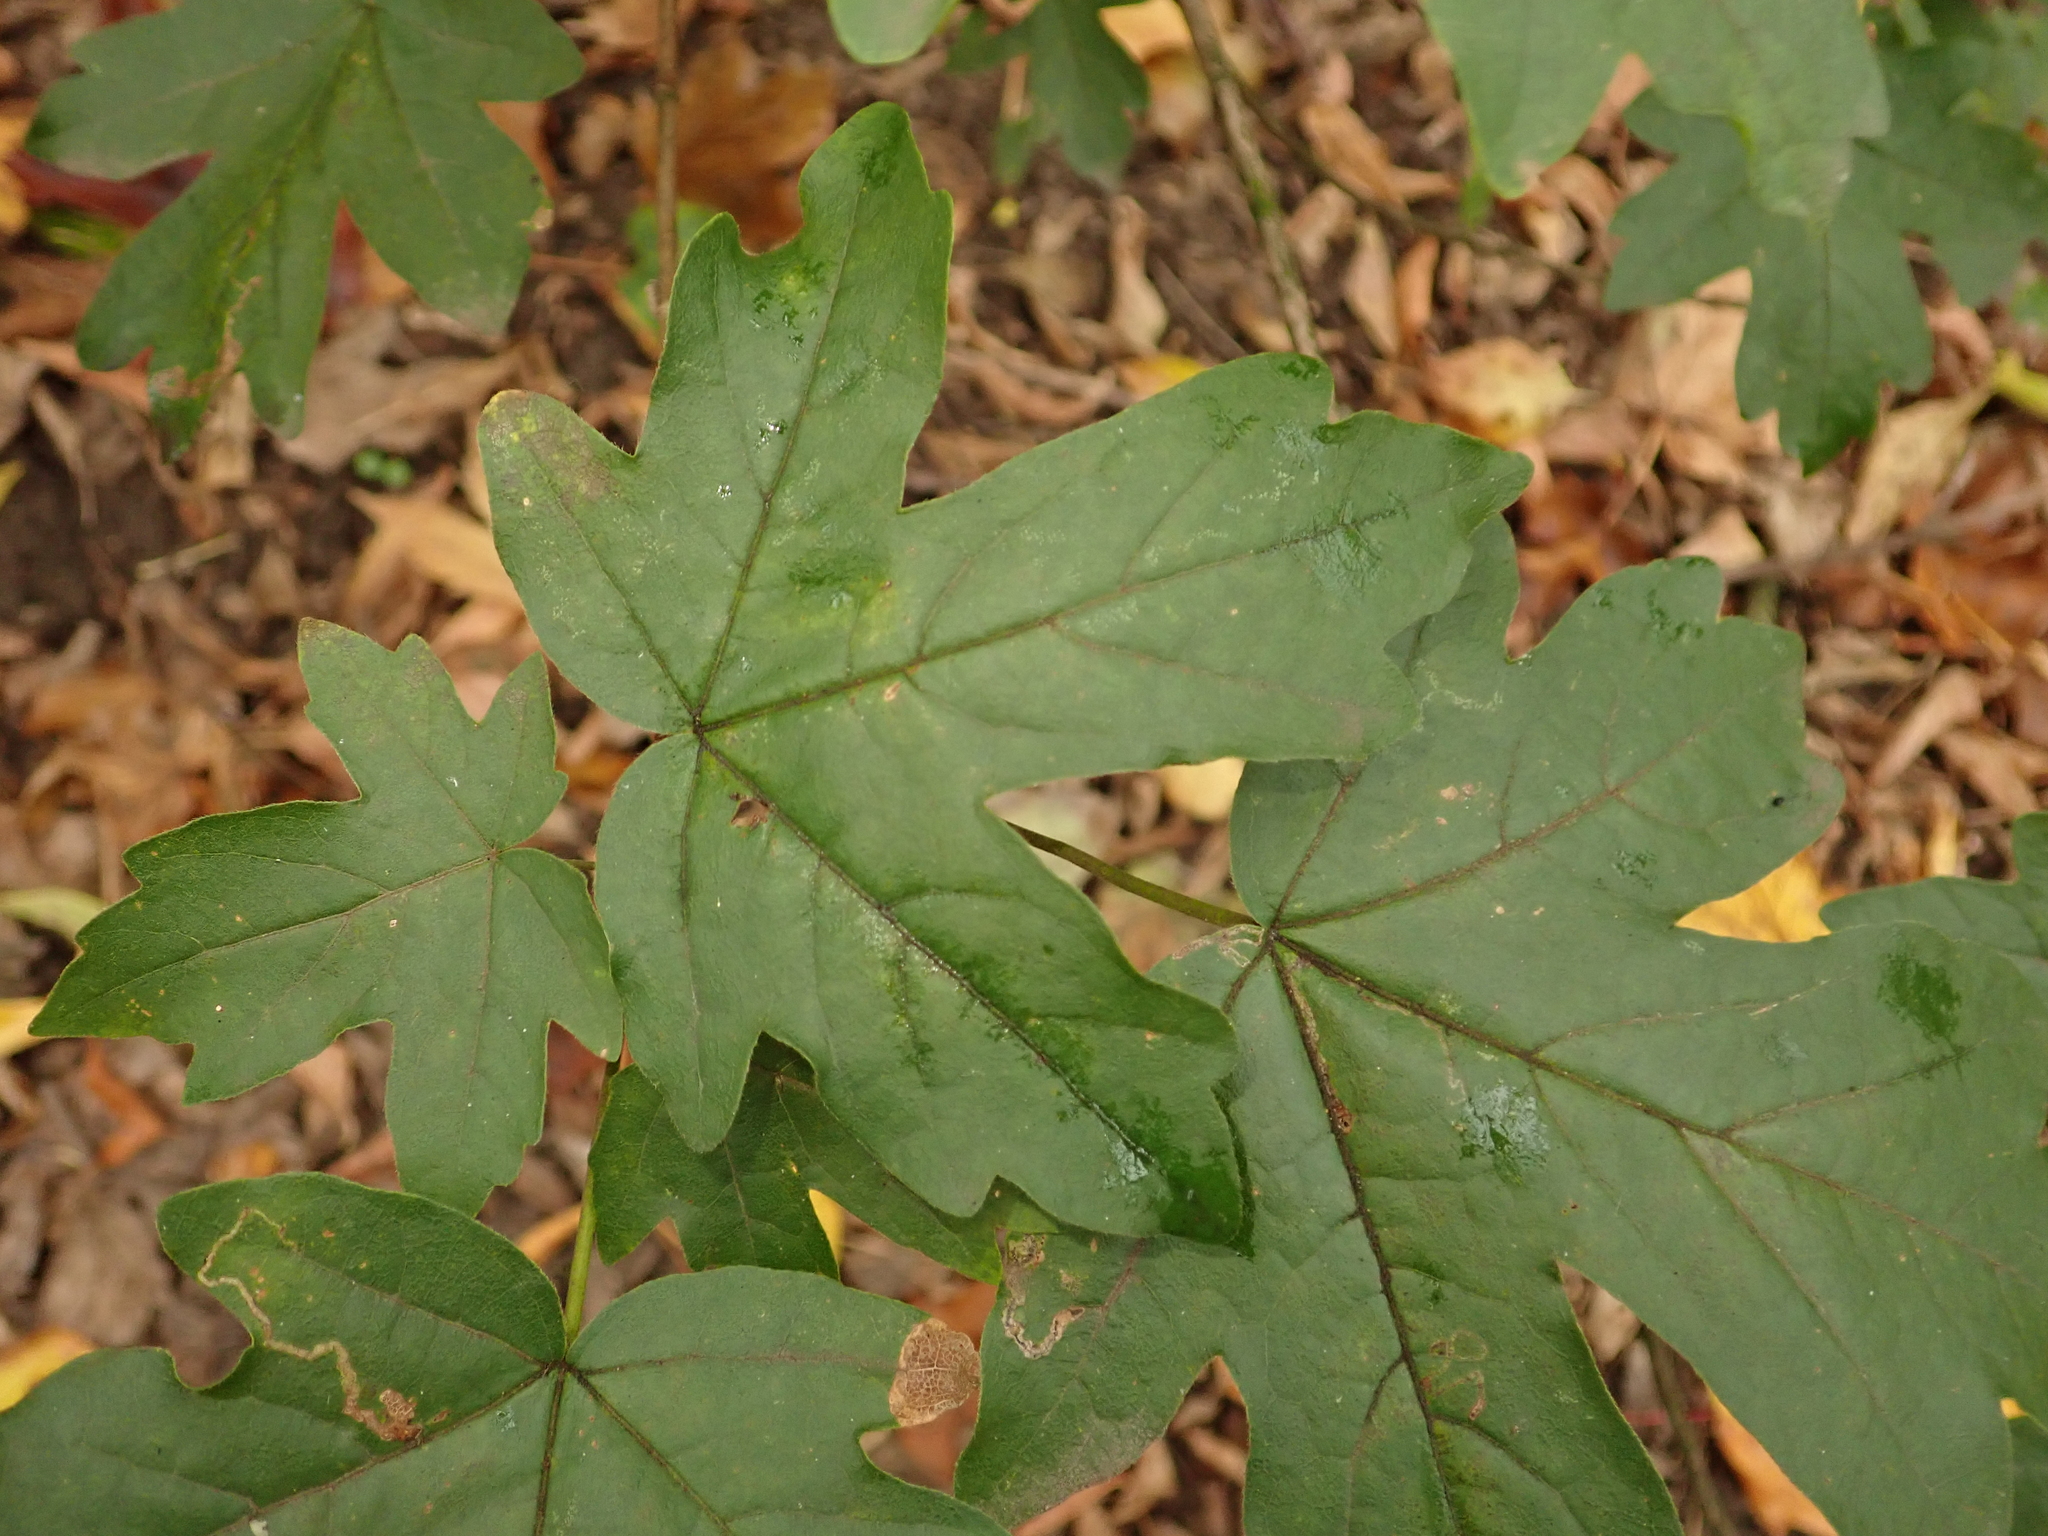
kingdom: Plantae
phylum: Tracheophyta
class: Magnoliopsida
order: Sapindales
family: Sapindaceae
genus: Acer
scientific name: Acer campestre
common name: Field maple
